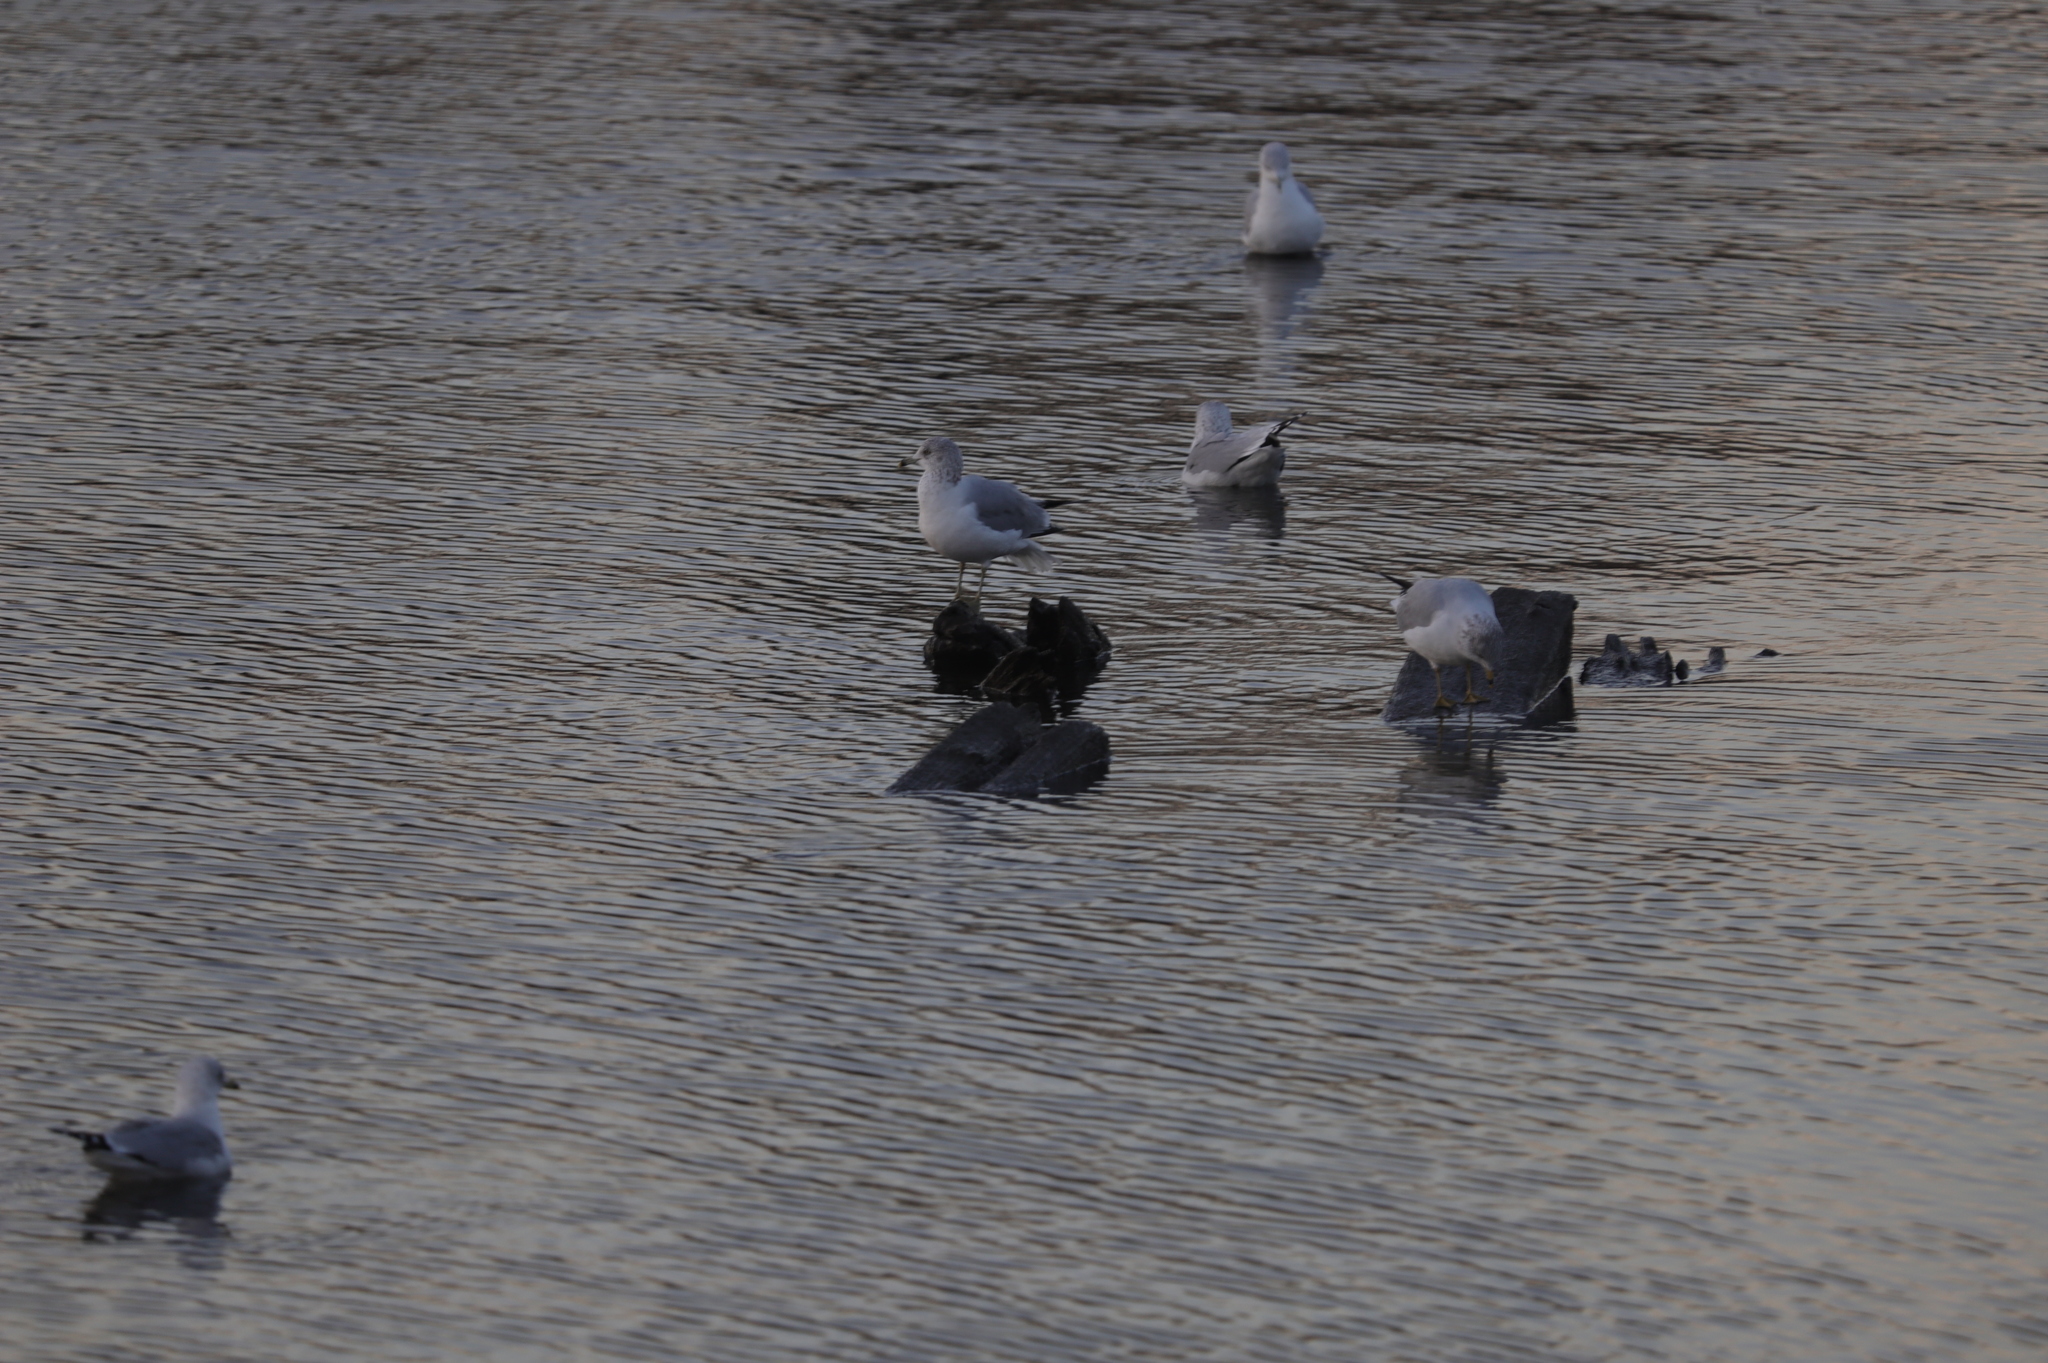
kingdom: Animalia
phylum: Chordata
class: Aves
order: Charadriiformes
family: Laridae
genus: Larus
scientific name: Larus delawarensis
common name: Ring-billed gull
